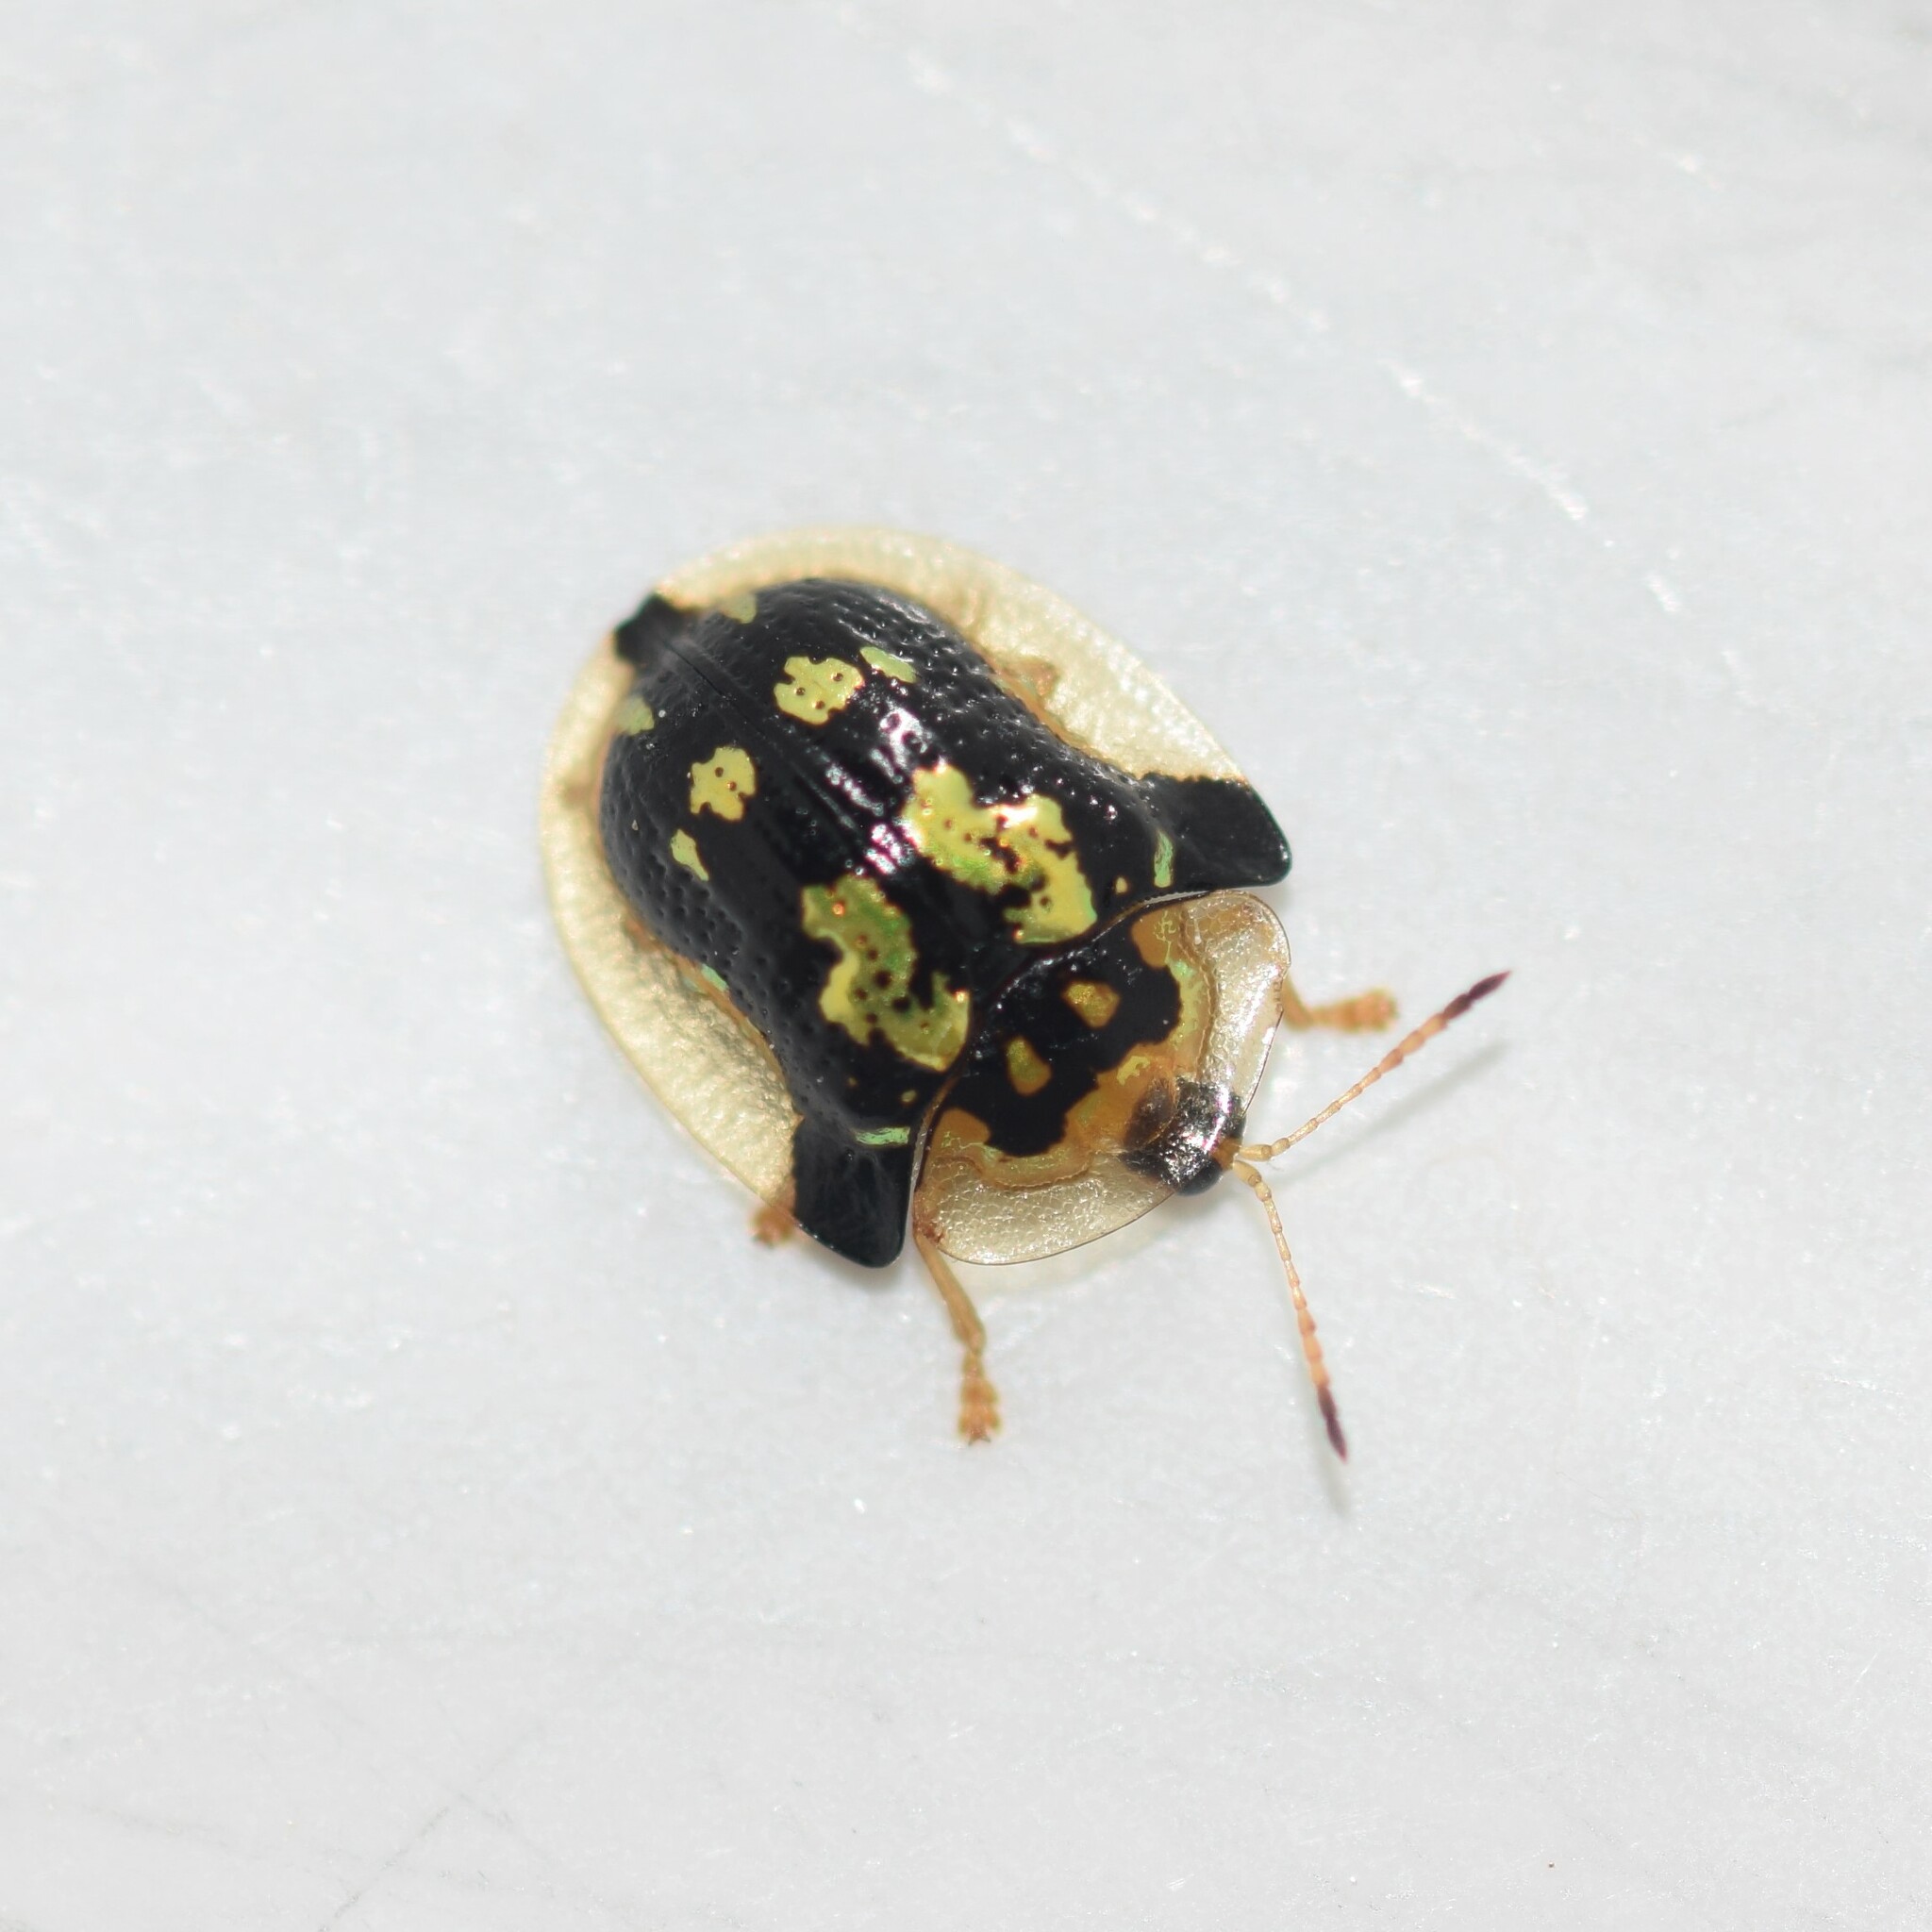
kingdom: Animalia
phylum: Arthropoda
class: Insecta
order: Coleoptera
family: Chrysomelidae
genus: Deloyala
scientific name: Deloyala guttata
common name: Mottled tortoise beetle
